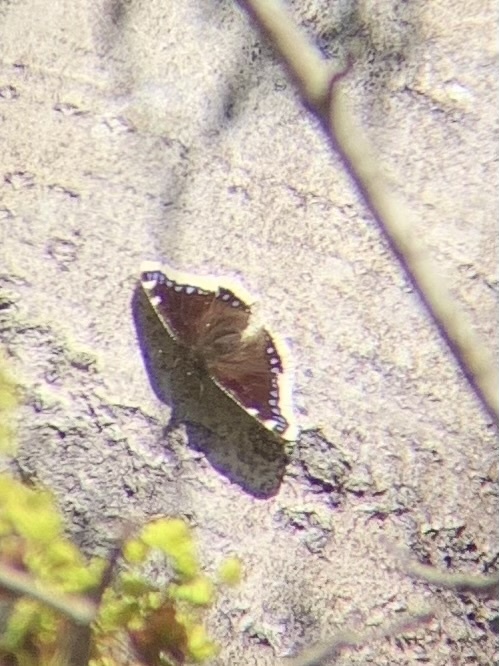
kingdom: Animalia
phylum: Arthropoda
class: Insecta
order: Lepidoptera
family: Nymphalidae
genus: Nymphalis
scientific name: Nymphalis antiopa
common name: Camberwell beauty
